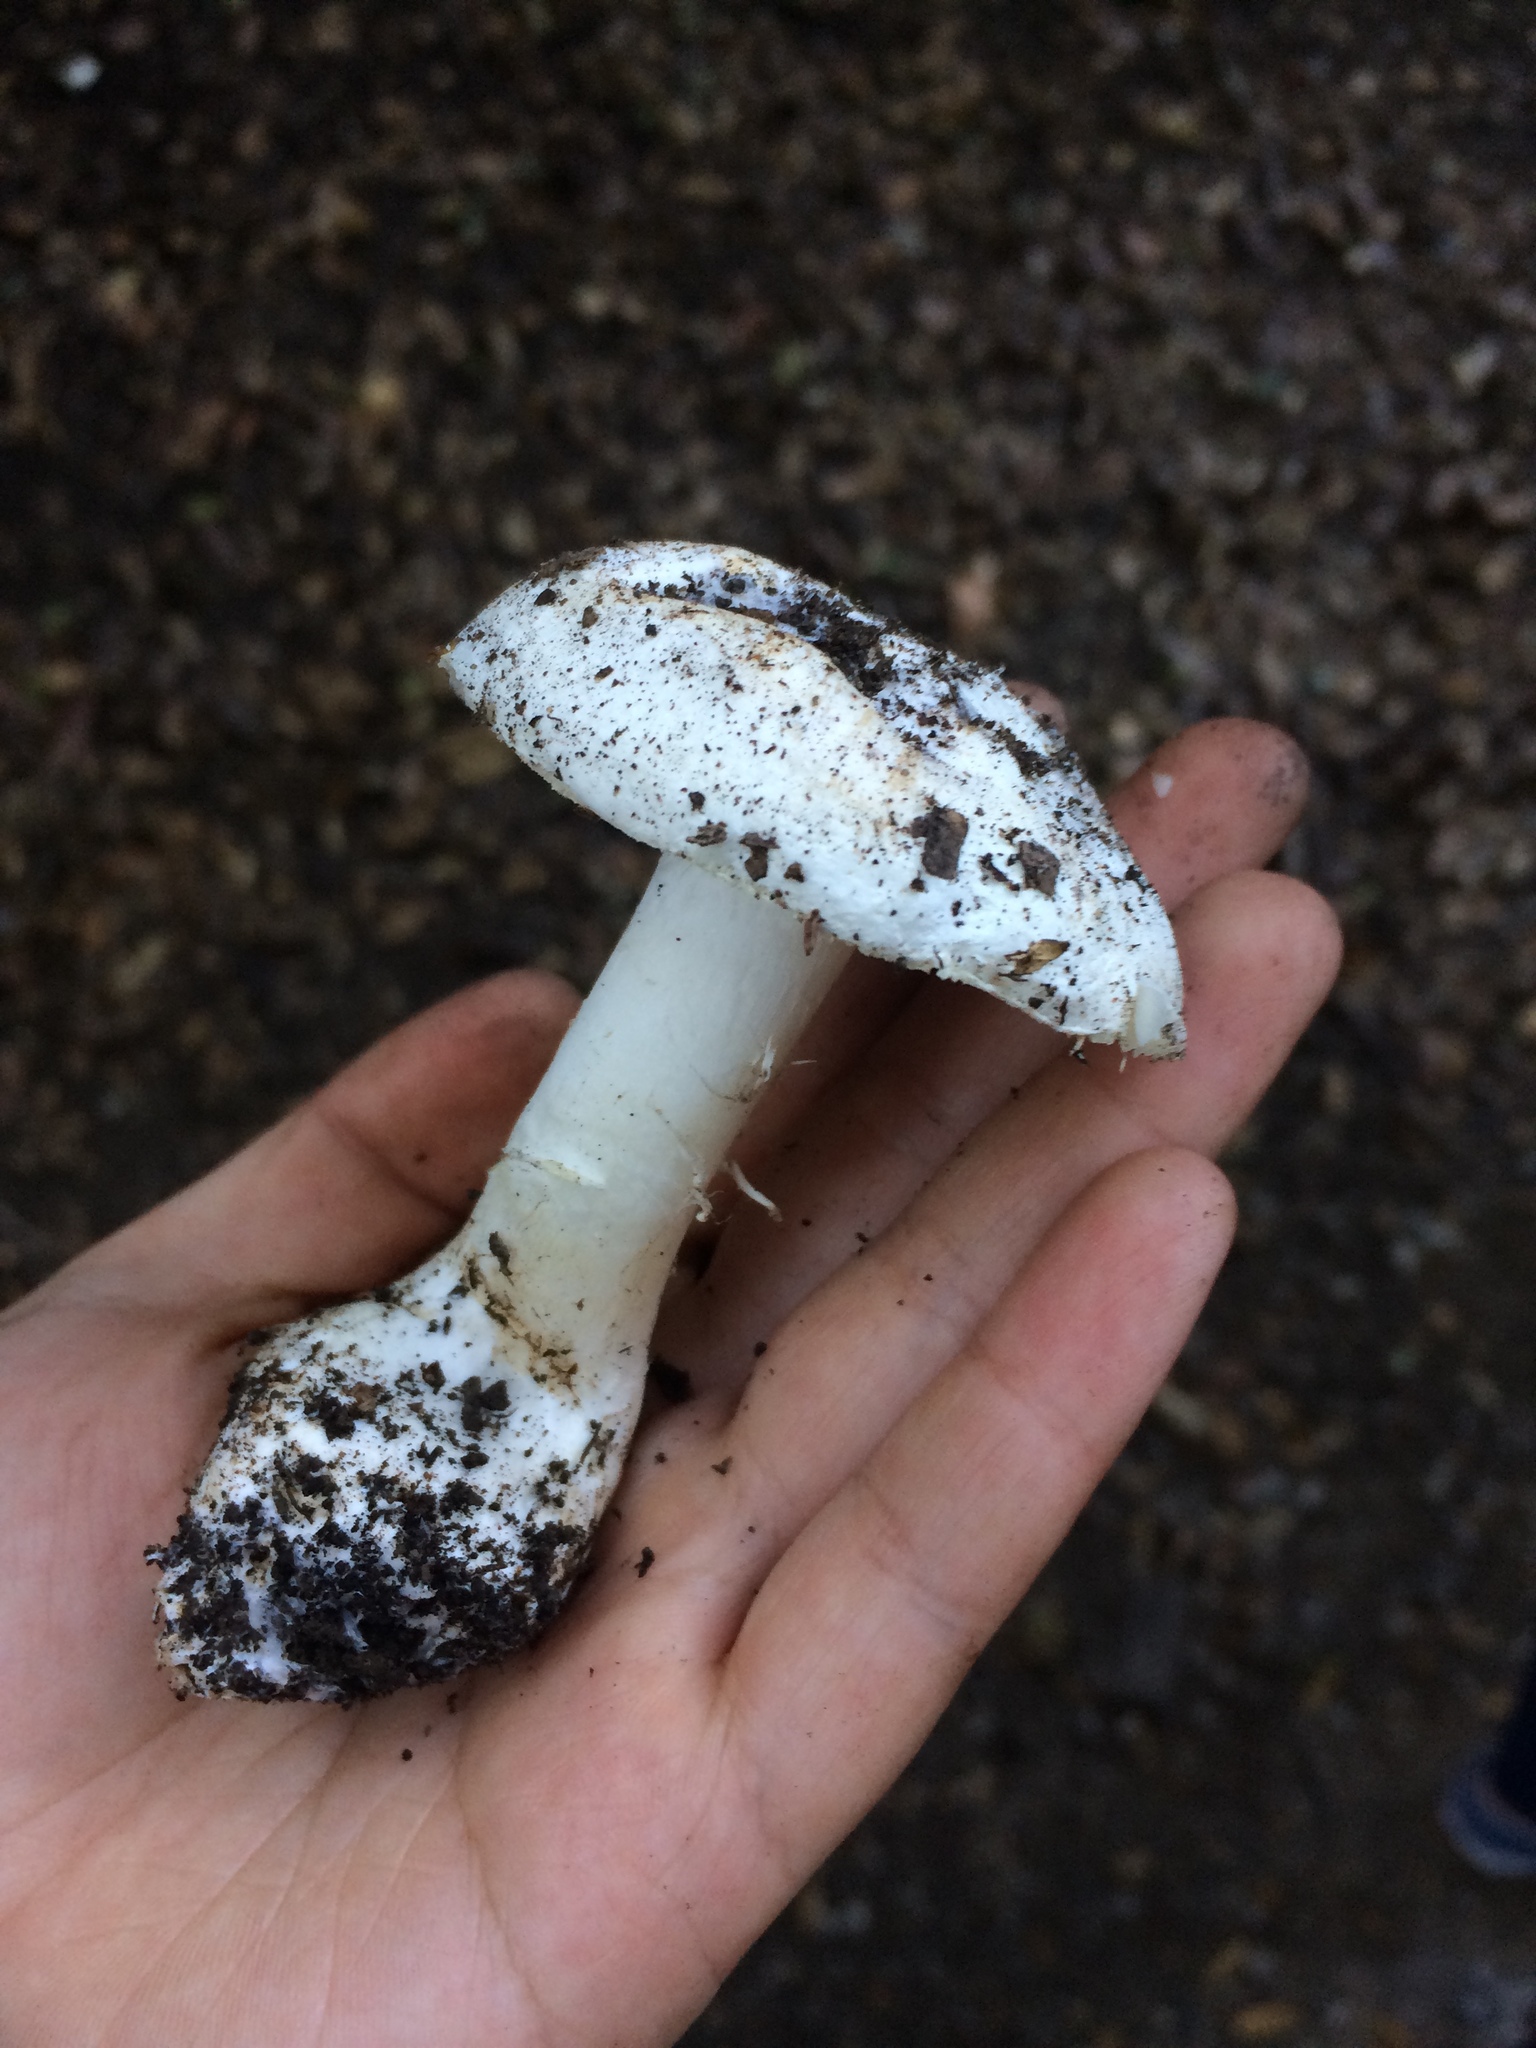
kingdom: Fungi
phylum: Basidiomycota
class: Agaricomycetes
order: Agaricales
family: Amanitaceae
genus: Amanita
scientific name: Amanita ocreata
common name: Western destroying angel
